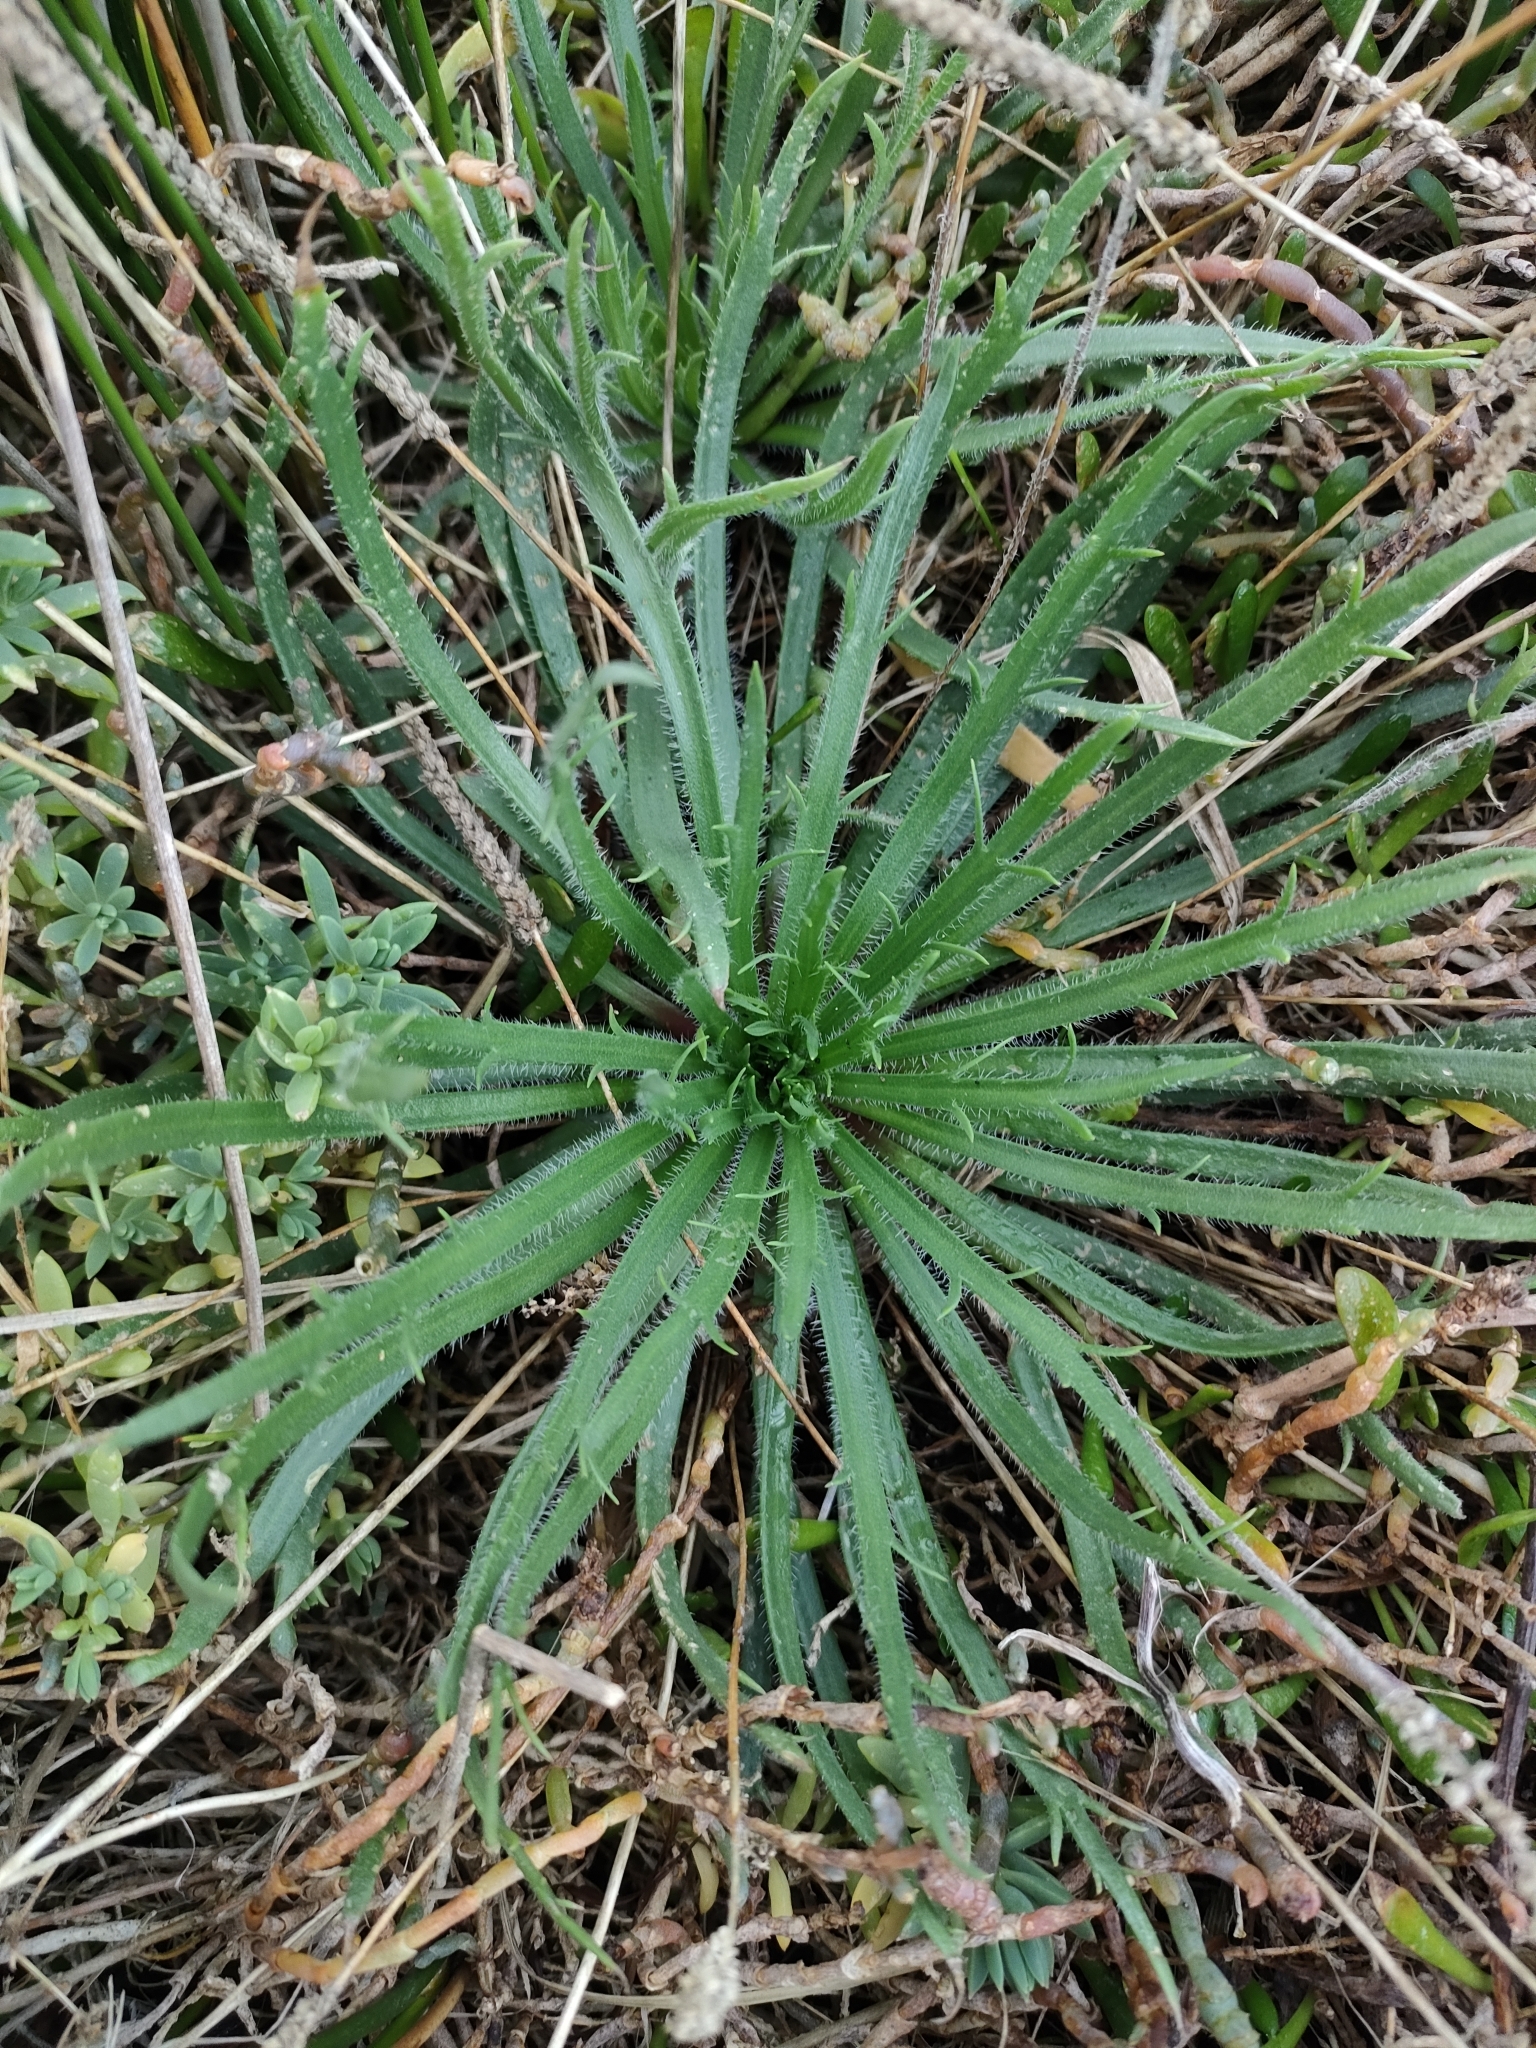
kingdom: Plantae
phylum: Tracheophyta
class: Magnoliopsida
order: Lamiales
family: Plantaginaceae
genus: Plantago
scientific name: Plantago coronopus
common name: Buck's-horn plantain
